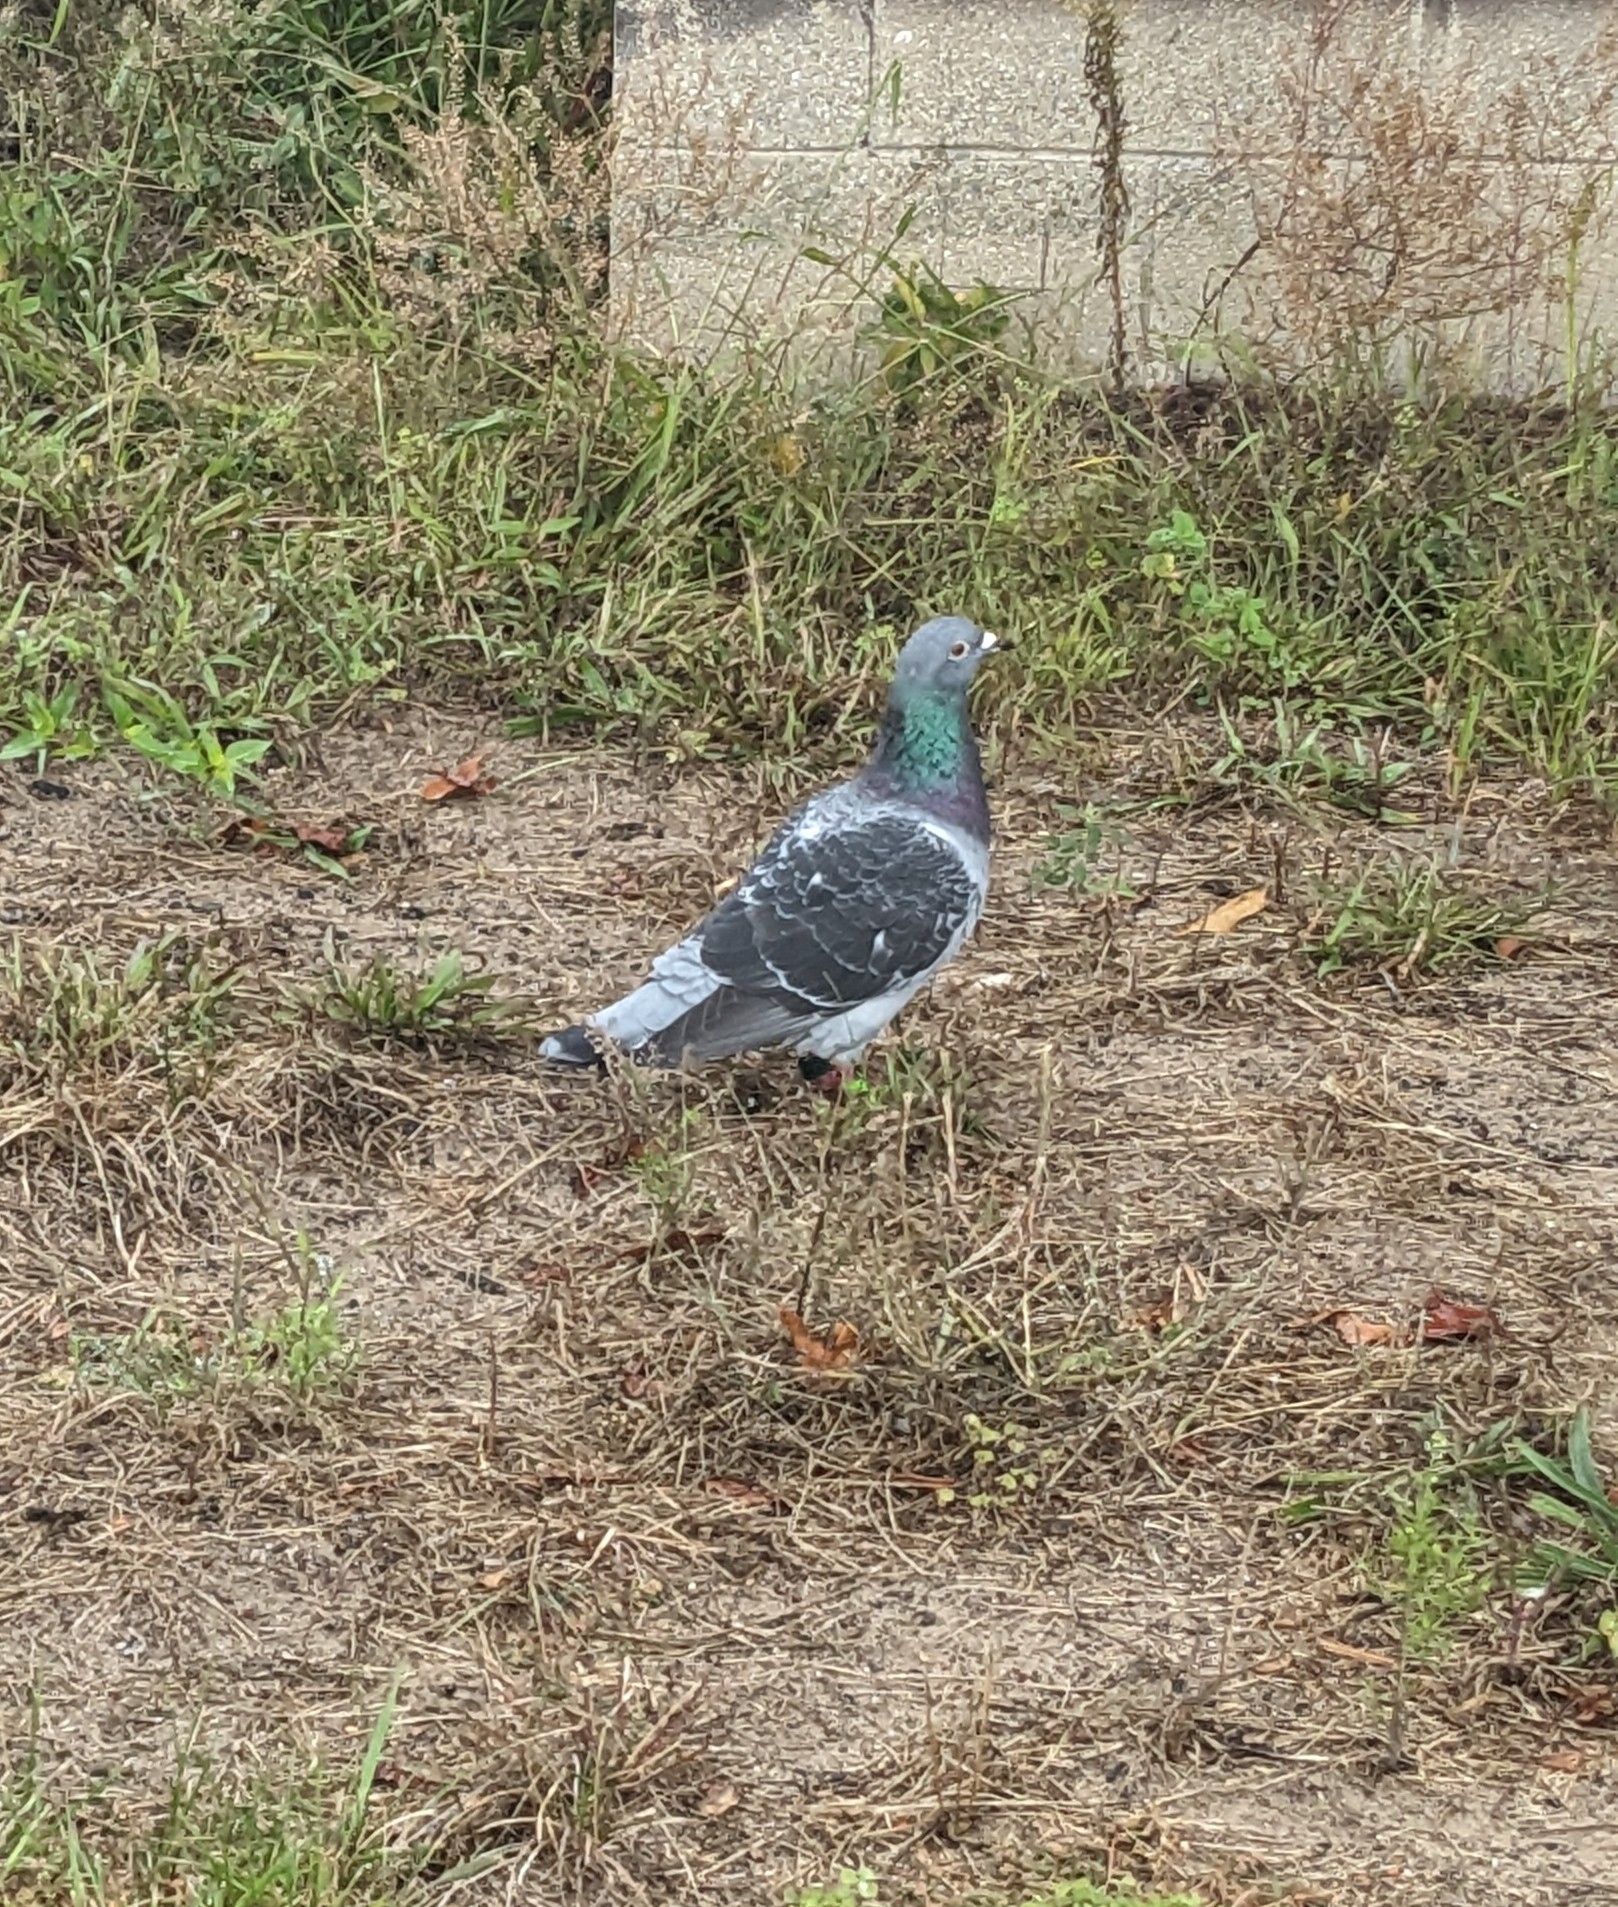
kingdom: Animalia
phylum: Chordata
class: Aves
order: Columbiformes
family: Columbidae
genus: Columba
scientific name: Columba livia
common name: Rock pigeon
